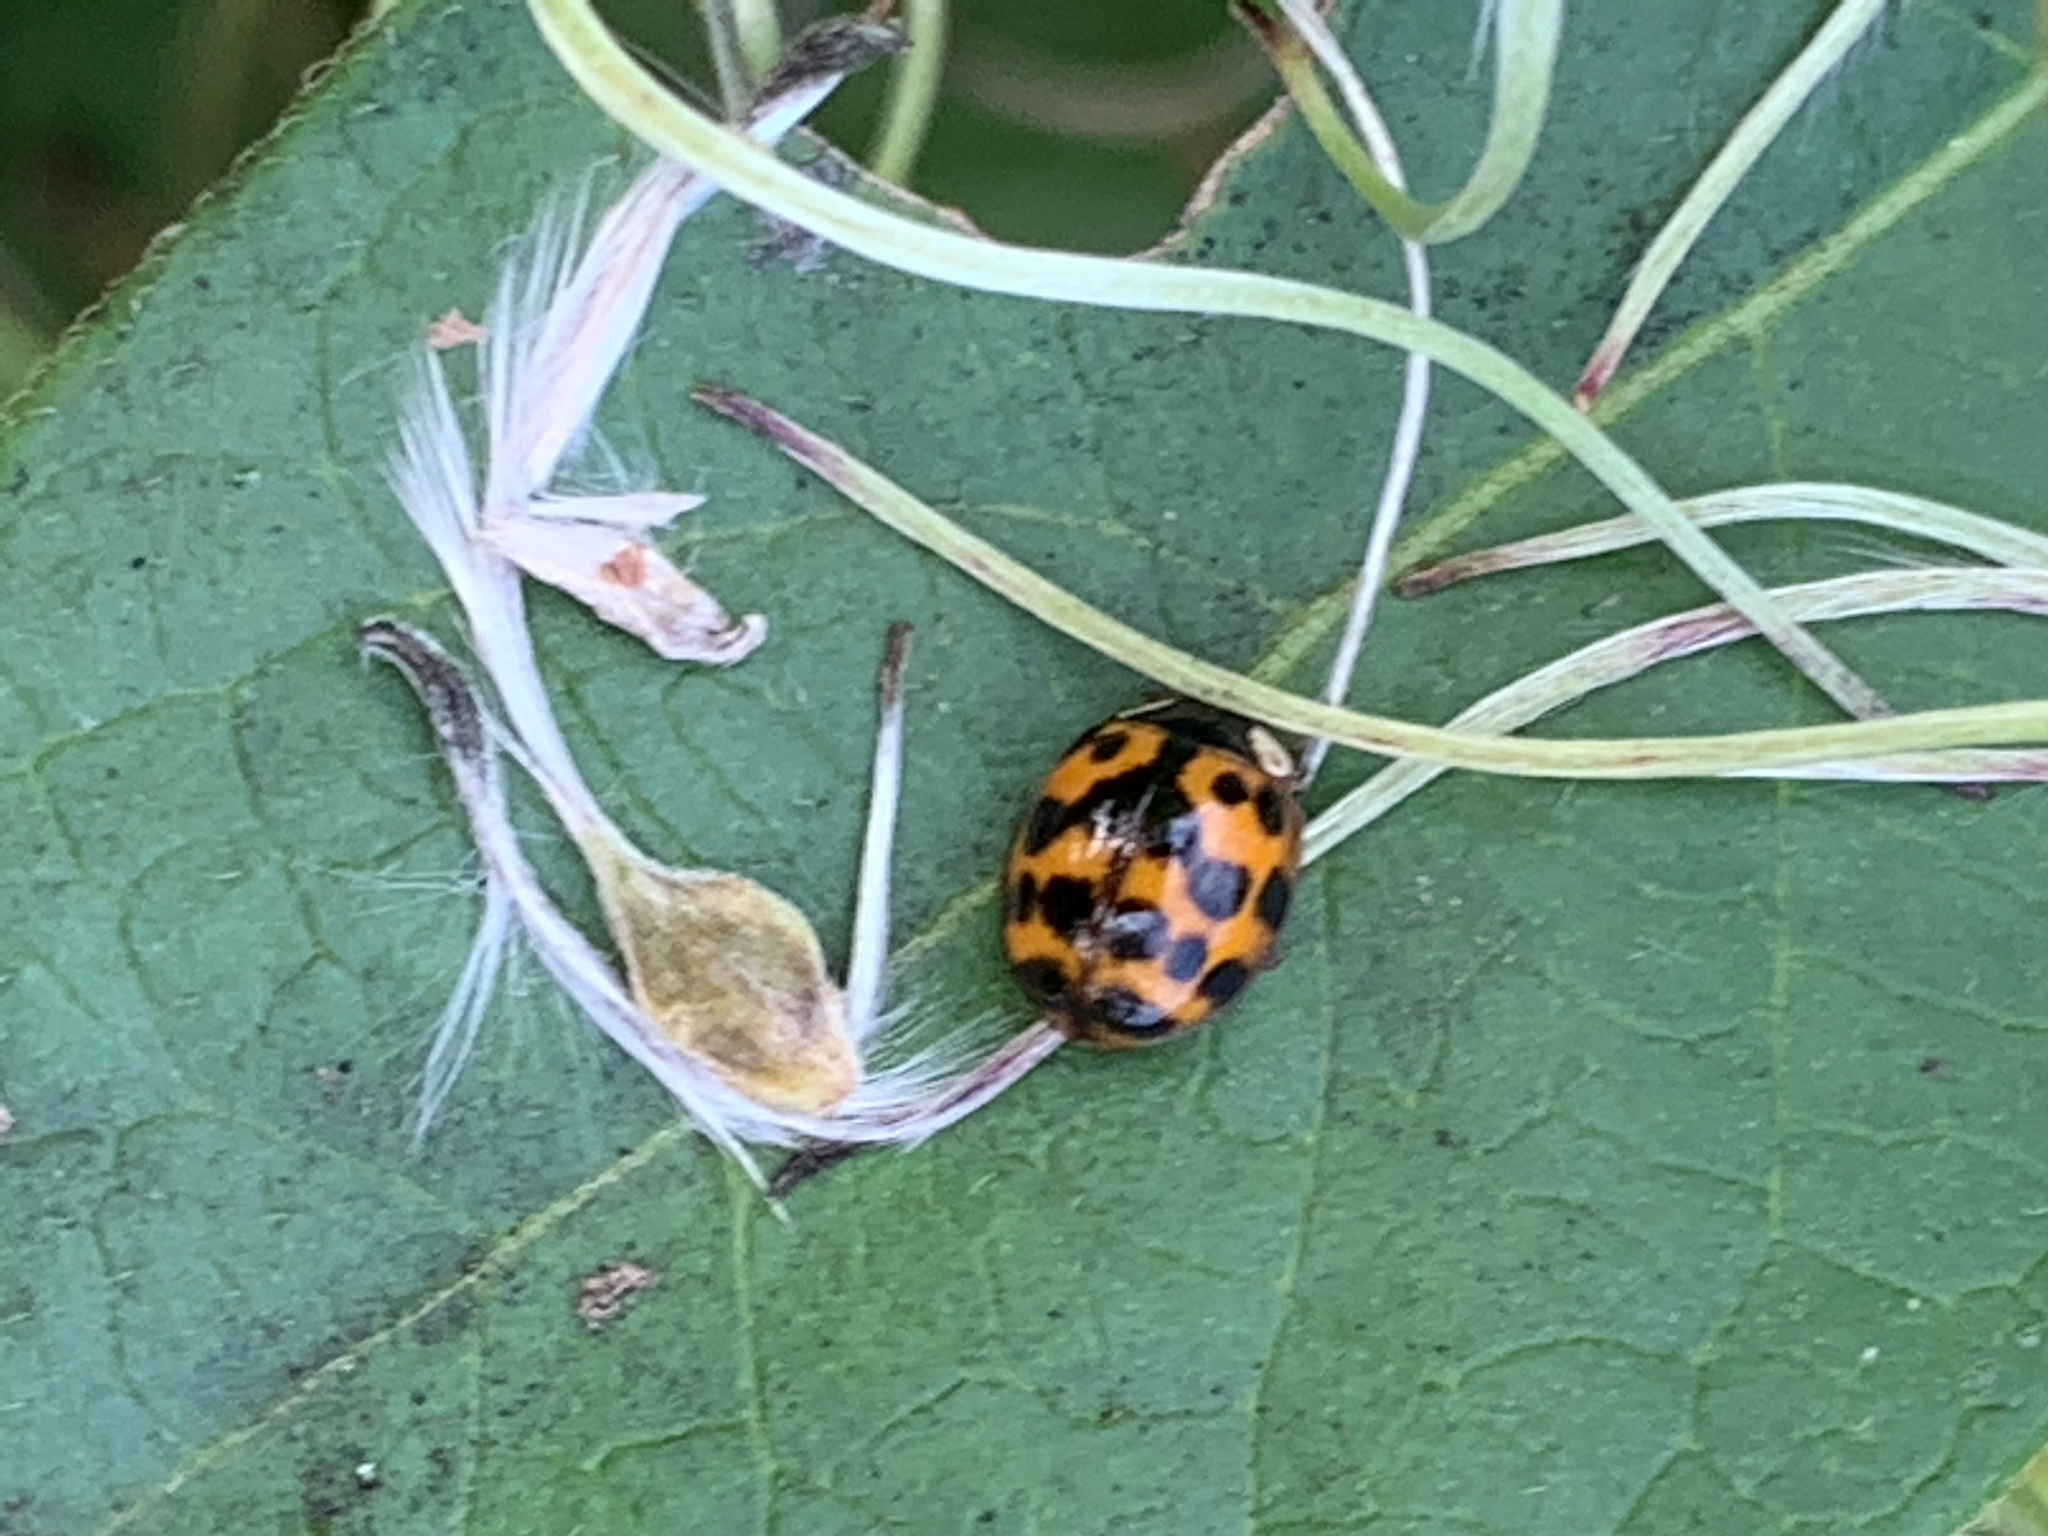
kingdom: Animalia
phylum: Arthropoda
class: Insecta
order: Coleoptera
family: Coccinellidae
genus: Harmonia
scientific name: Harmonia axyridis
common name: Harlequin ladybird
